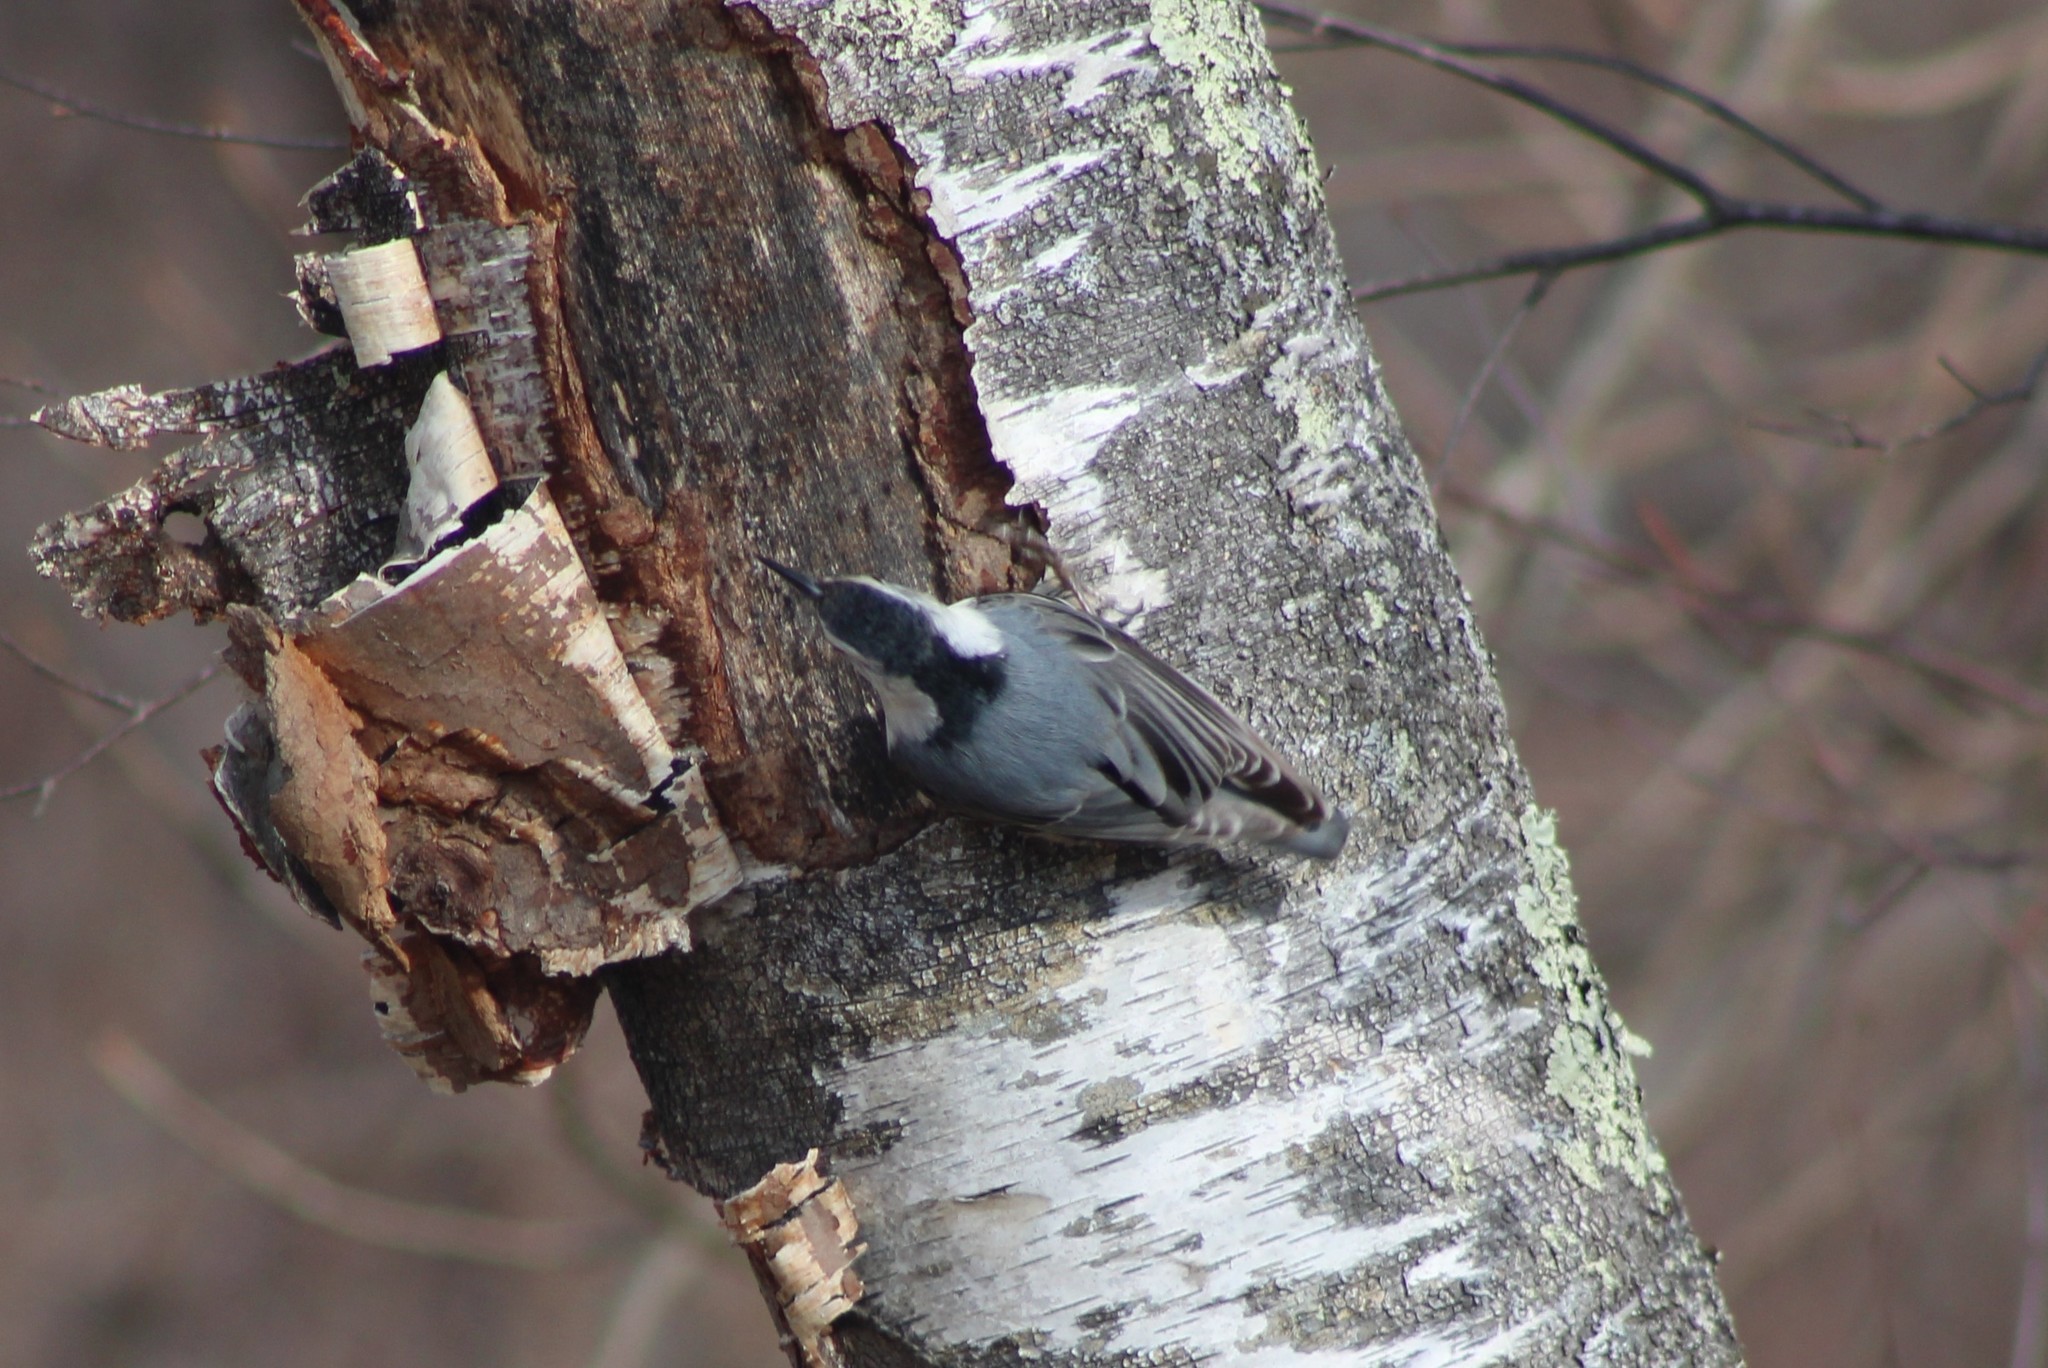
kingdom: Animalia
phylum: Chordata
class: Aves
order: Passeriformes
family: Sittidae
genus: Sitta
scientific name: Sitta carolinensis
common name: White-breasted nuthatch
